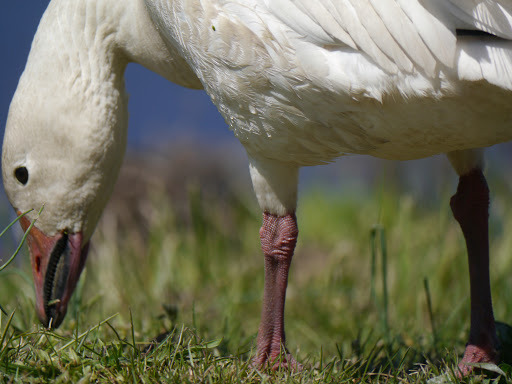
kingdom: Animalia
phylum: Chordata
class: Aves
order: Anseriformes
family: Anatidae
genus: Anser
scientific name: Anser caerulescens
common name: Snow goose
